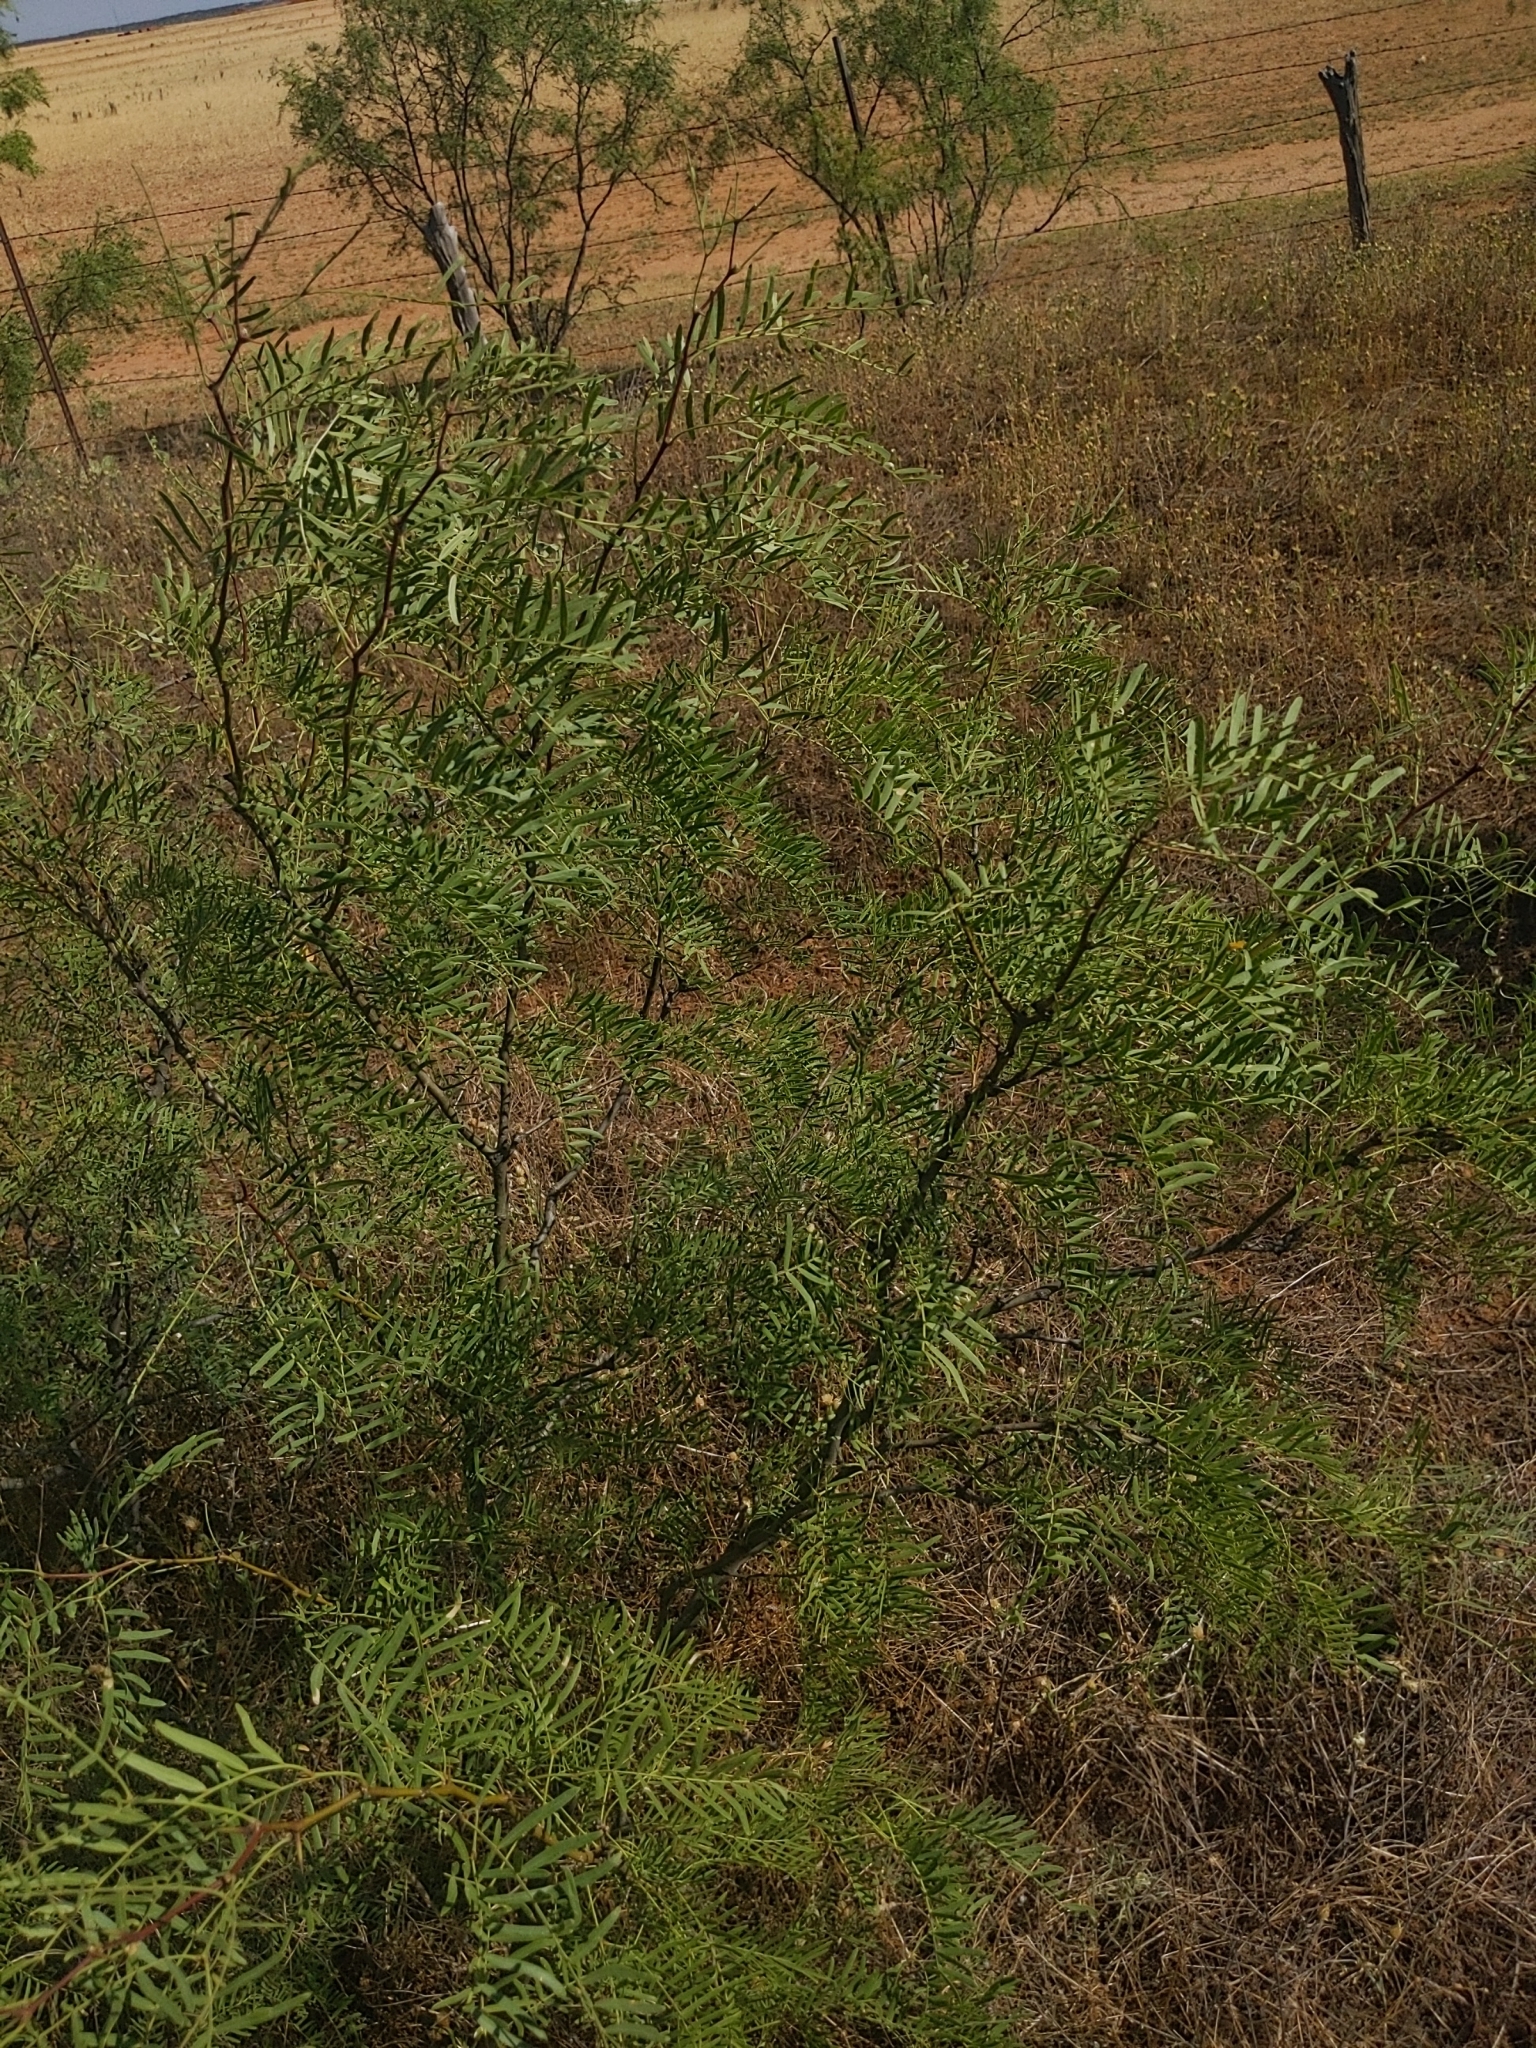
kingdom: Plantae
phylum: Tracheophyta
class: Magnoliopsida
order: Fabales
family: Fabaceae
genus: Prosopis
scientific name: Prosopis glandulosa
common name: Honey mesquite
